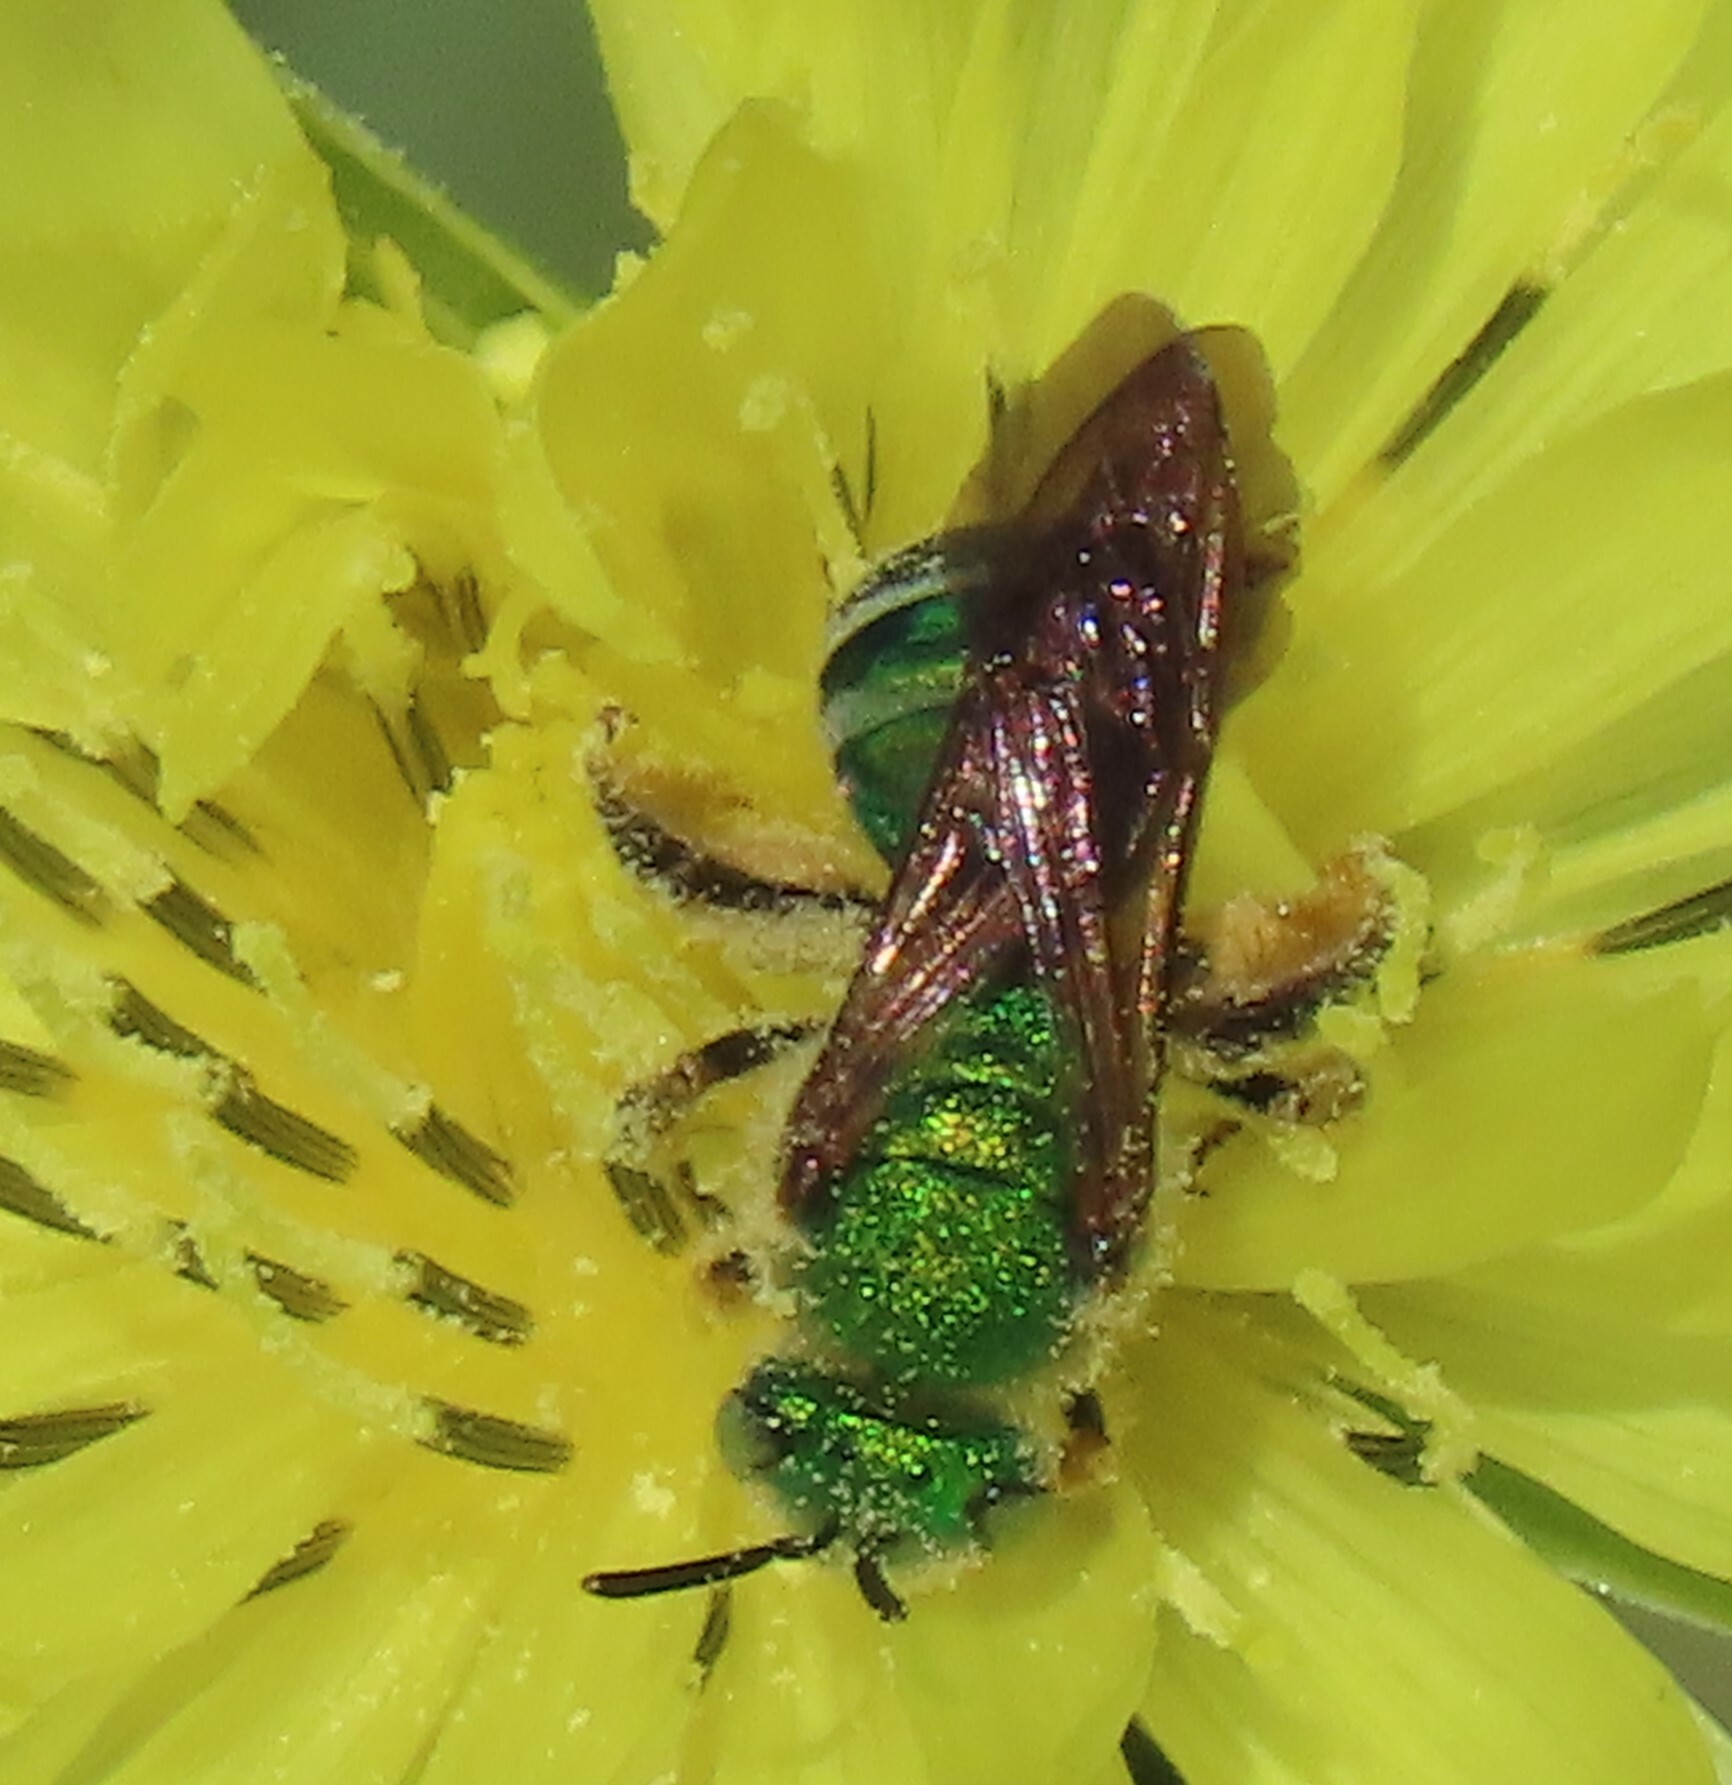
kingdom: Animalia
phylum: Arthropoda
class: Insecta
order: Hymenoptera
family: Halictidae
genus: Agapostemon
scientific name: Agapostemon splendens
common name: Brown-winged striped sweat bee
